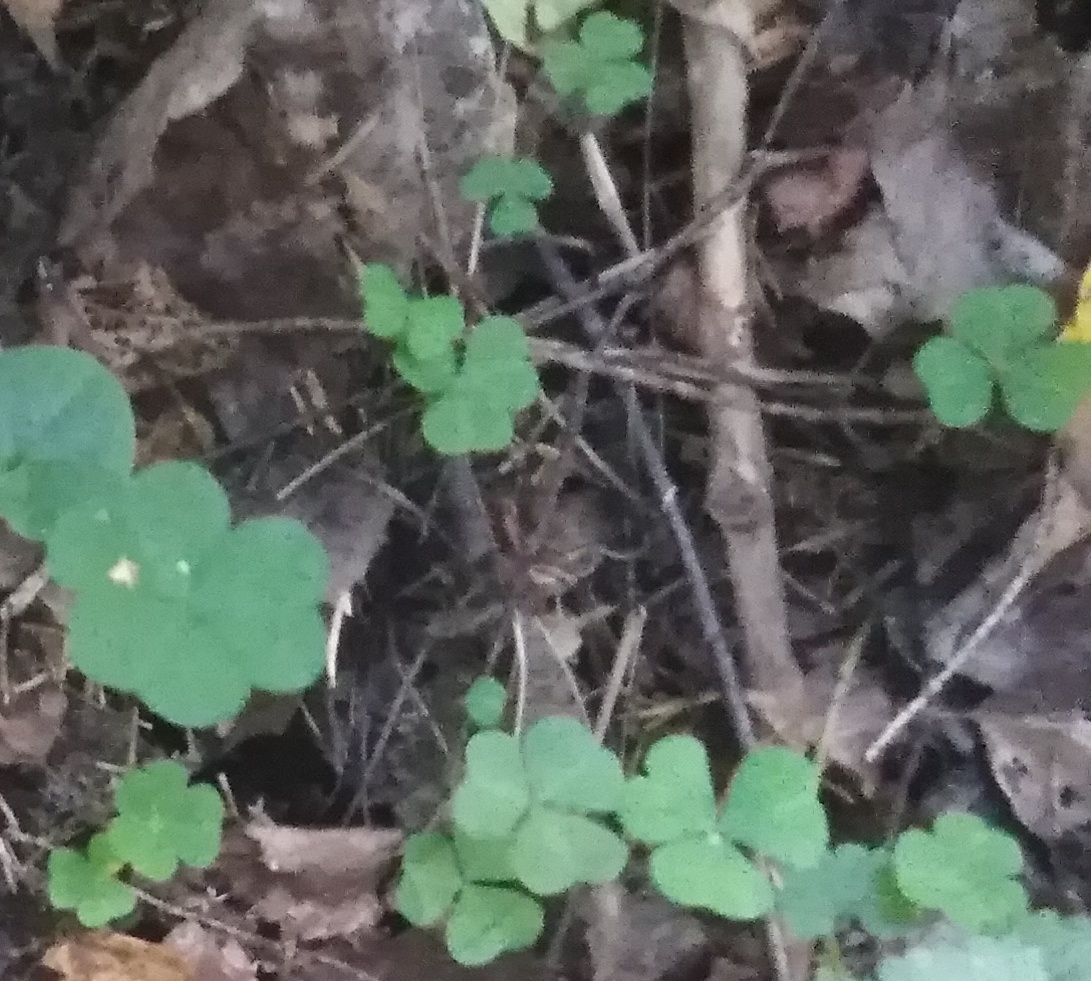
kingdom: Plantae
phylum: Tracheophyta
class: Magnoliopsida
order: Oxalidales
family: Oxalidaceae
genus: Oxalis
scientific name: Oxalis acetosella
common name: Wood-sorrel
